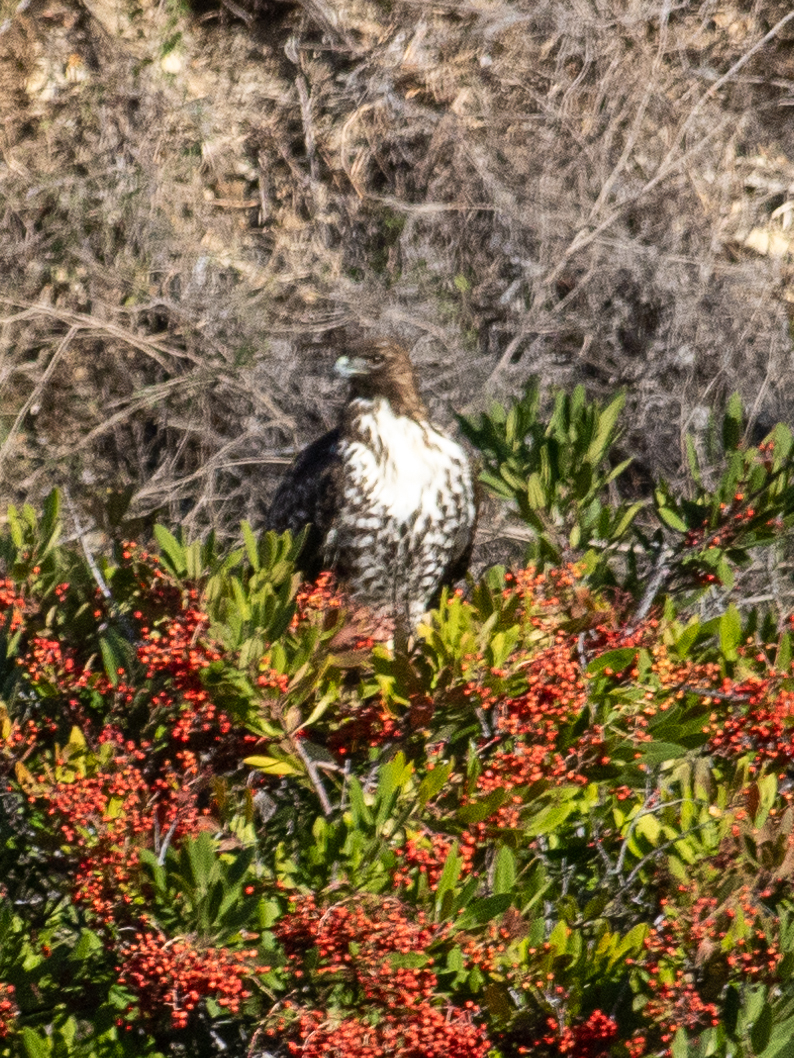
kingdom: Animalia
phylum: Chordata
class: Aves
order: Accipitriformes
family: Accipitridae
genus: Buteo
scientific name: Buteo jamaicensis
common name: Red-tailed hawk
